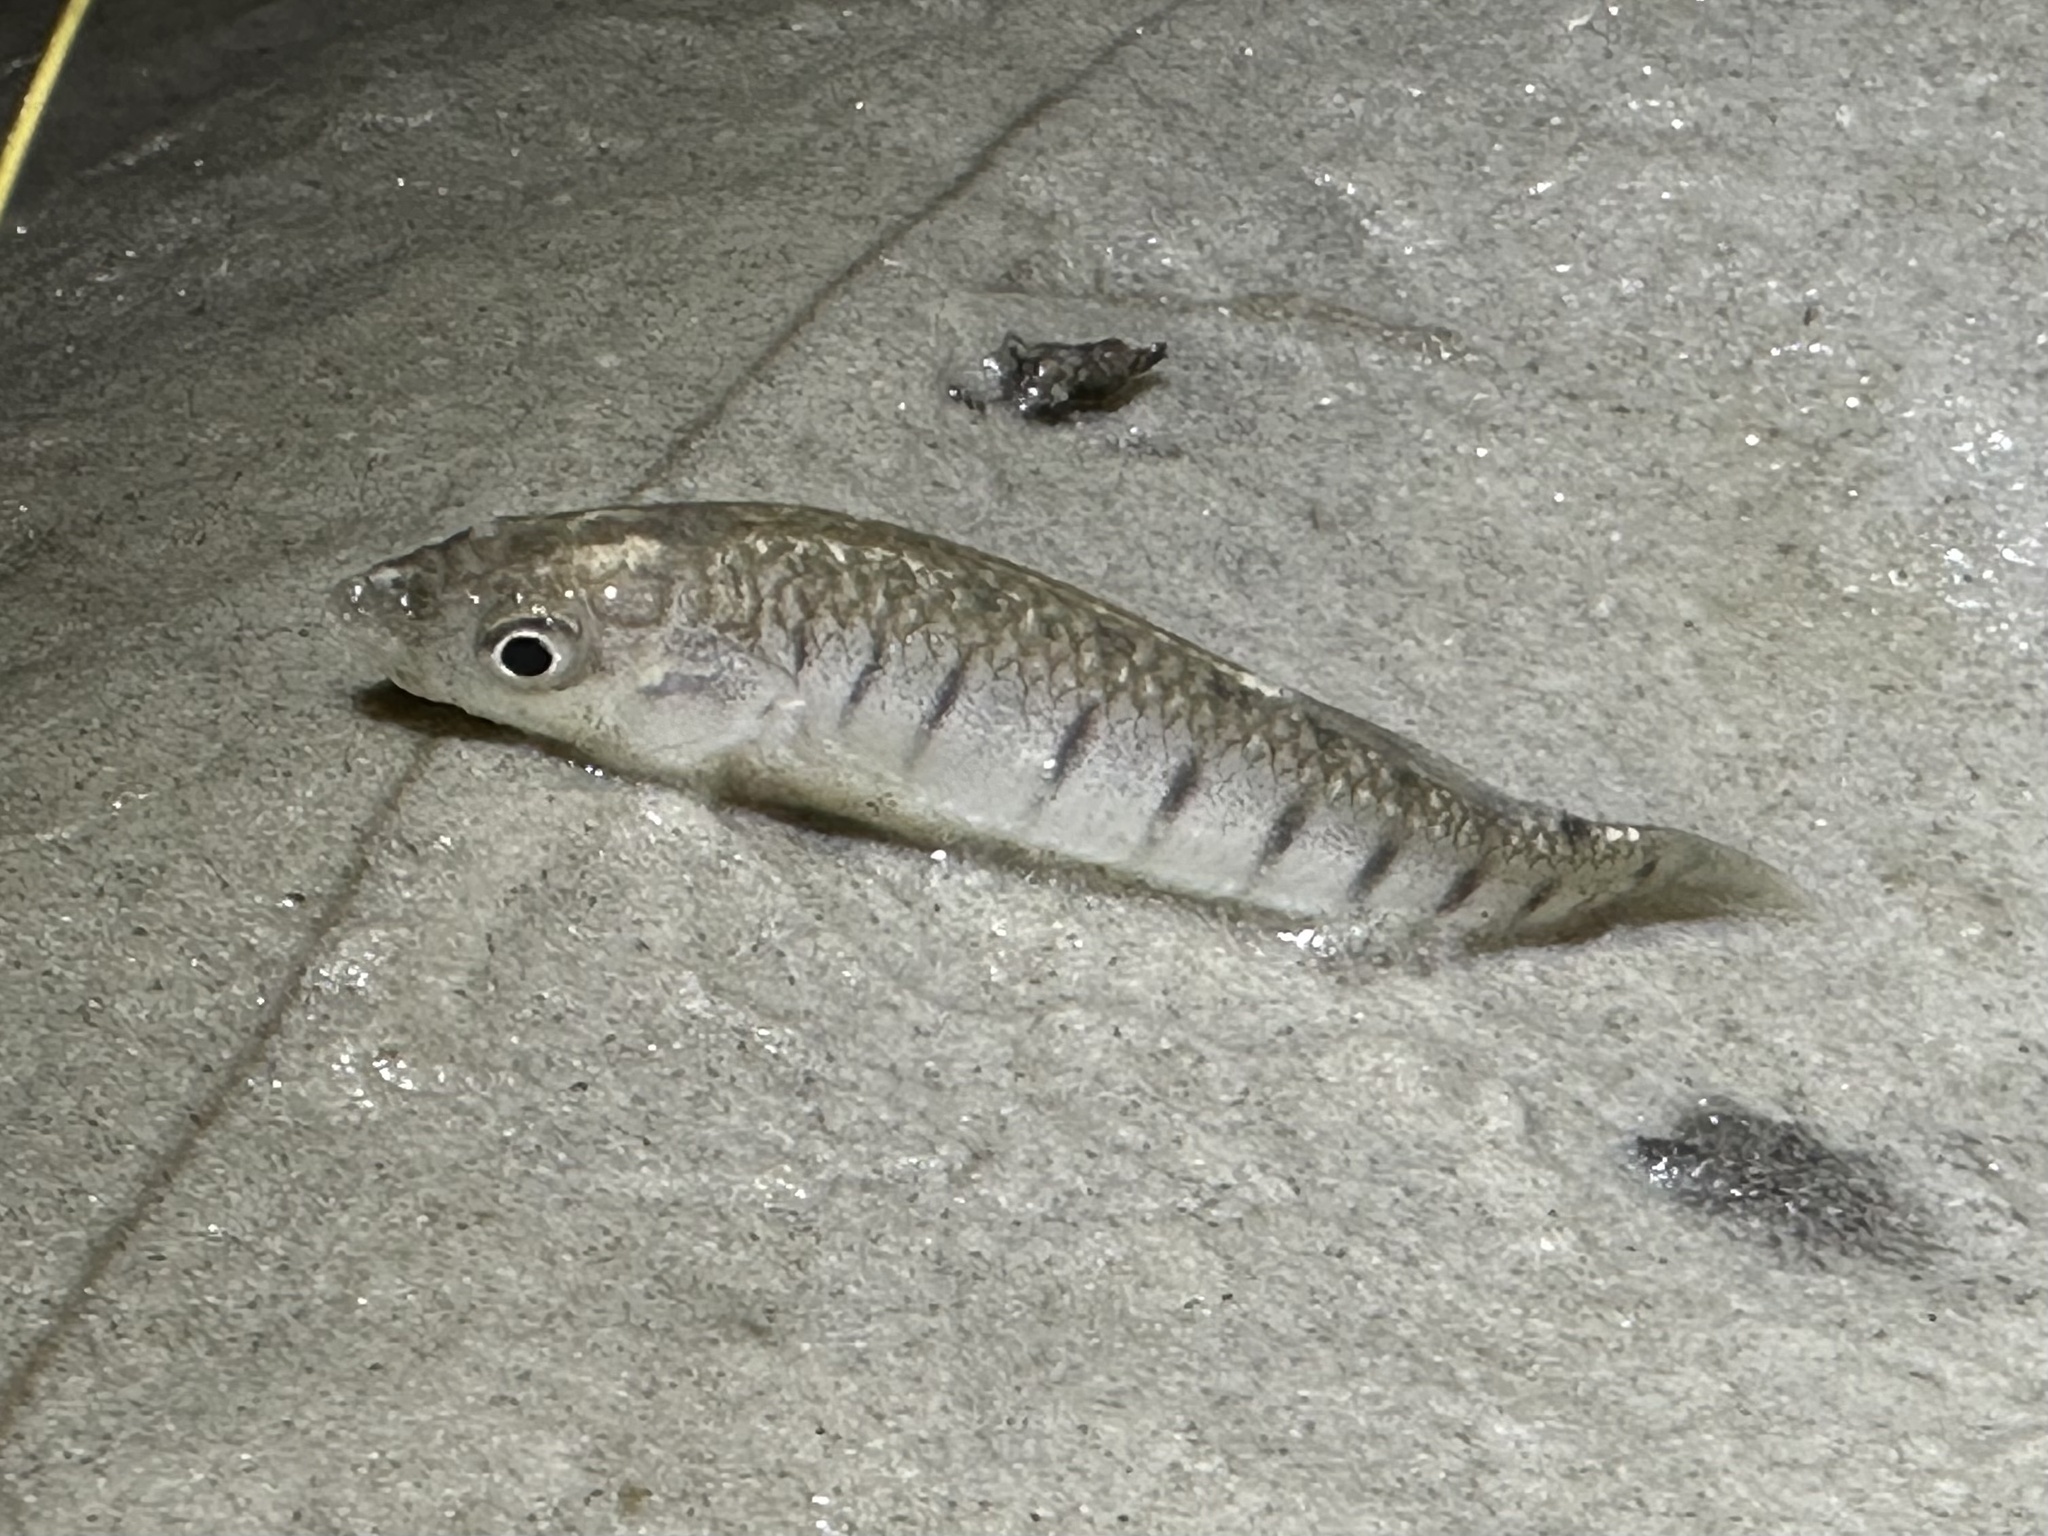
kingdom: Animalia
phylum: Chordata
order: Cyprinodontiformes
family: Fundulidae
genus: Fundulus
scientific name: Fundulus similis
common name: Longnose killifish
